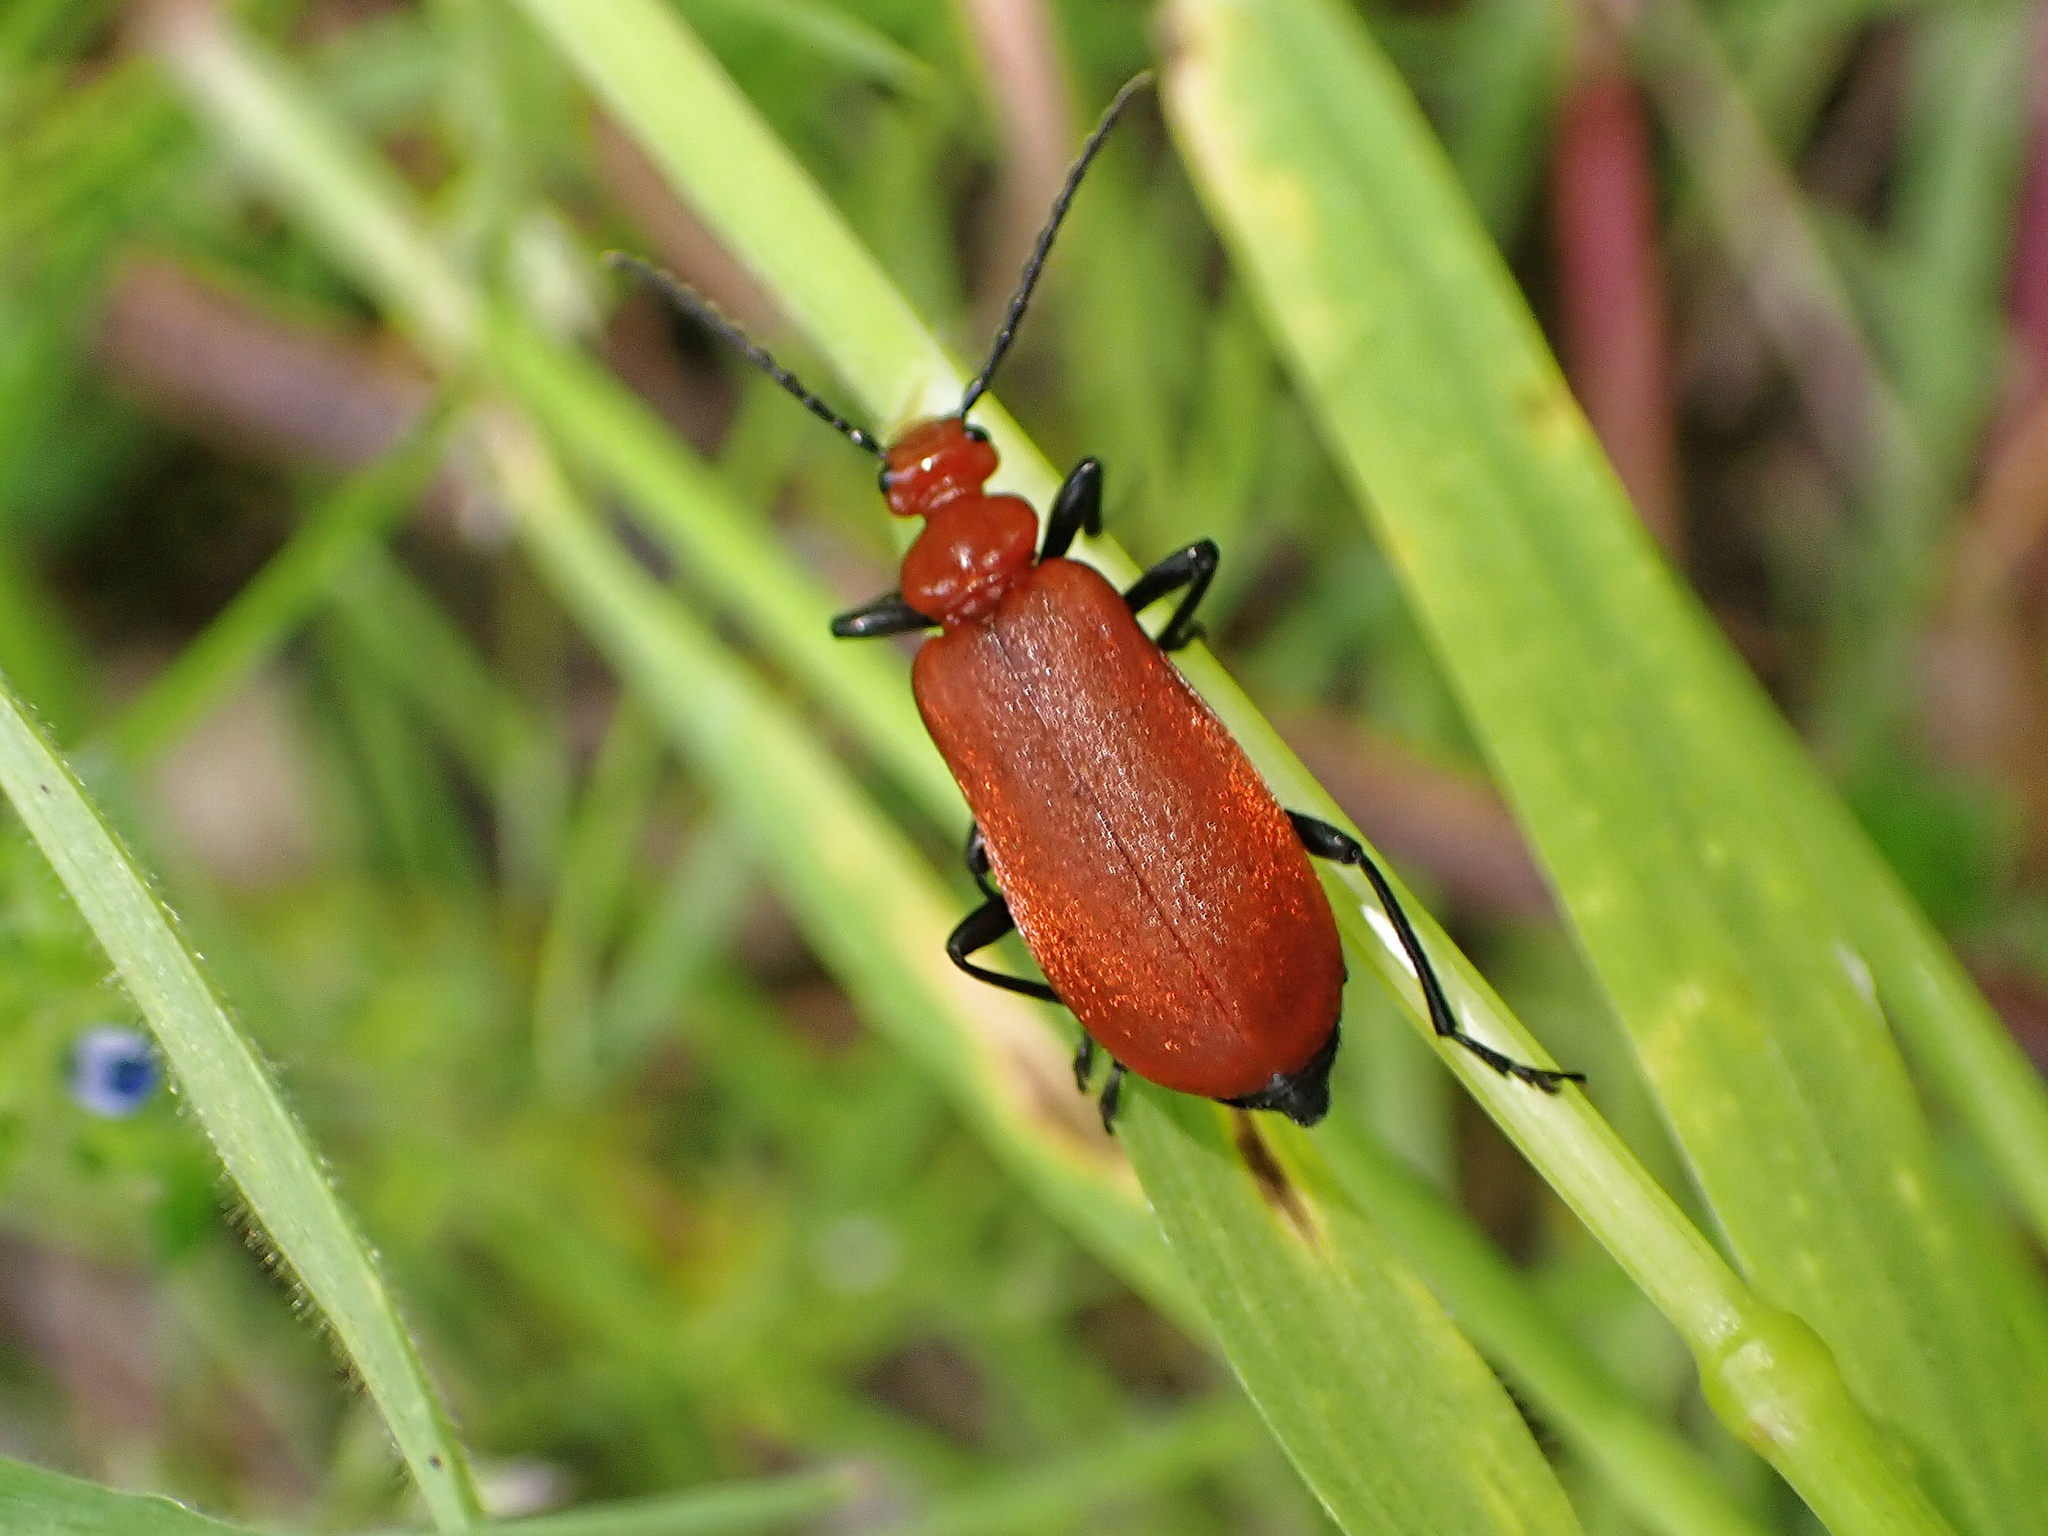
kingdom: Animalia
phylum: Arthropoda
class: Insecta
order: Coleoptera
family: Pyrochroidae
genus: Pyrochroa
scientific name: Pyrochroa serraticornis
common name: Red-headed cardinal beetle
